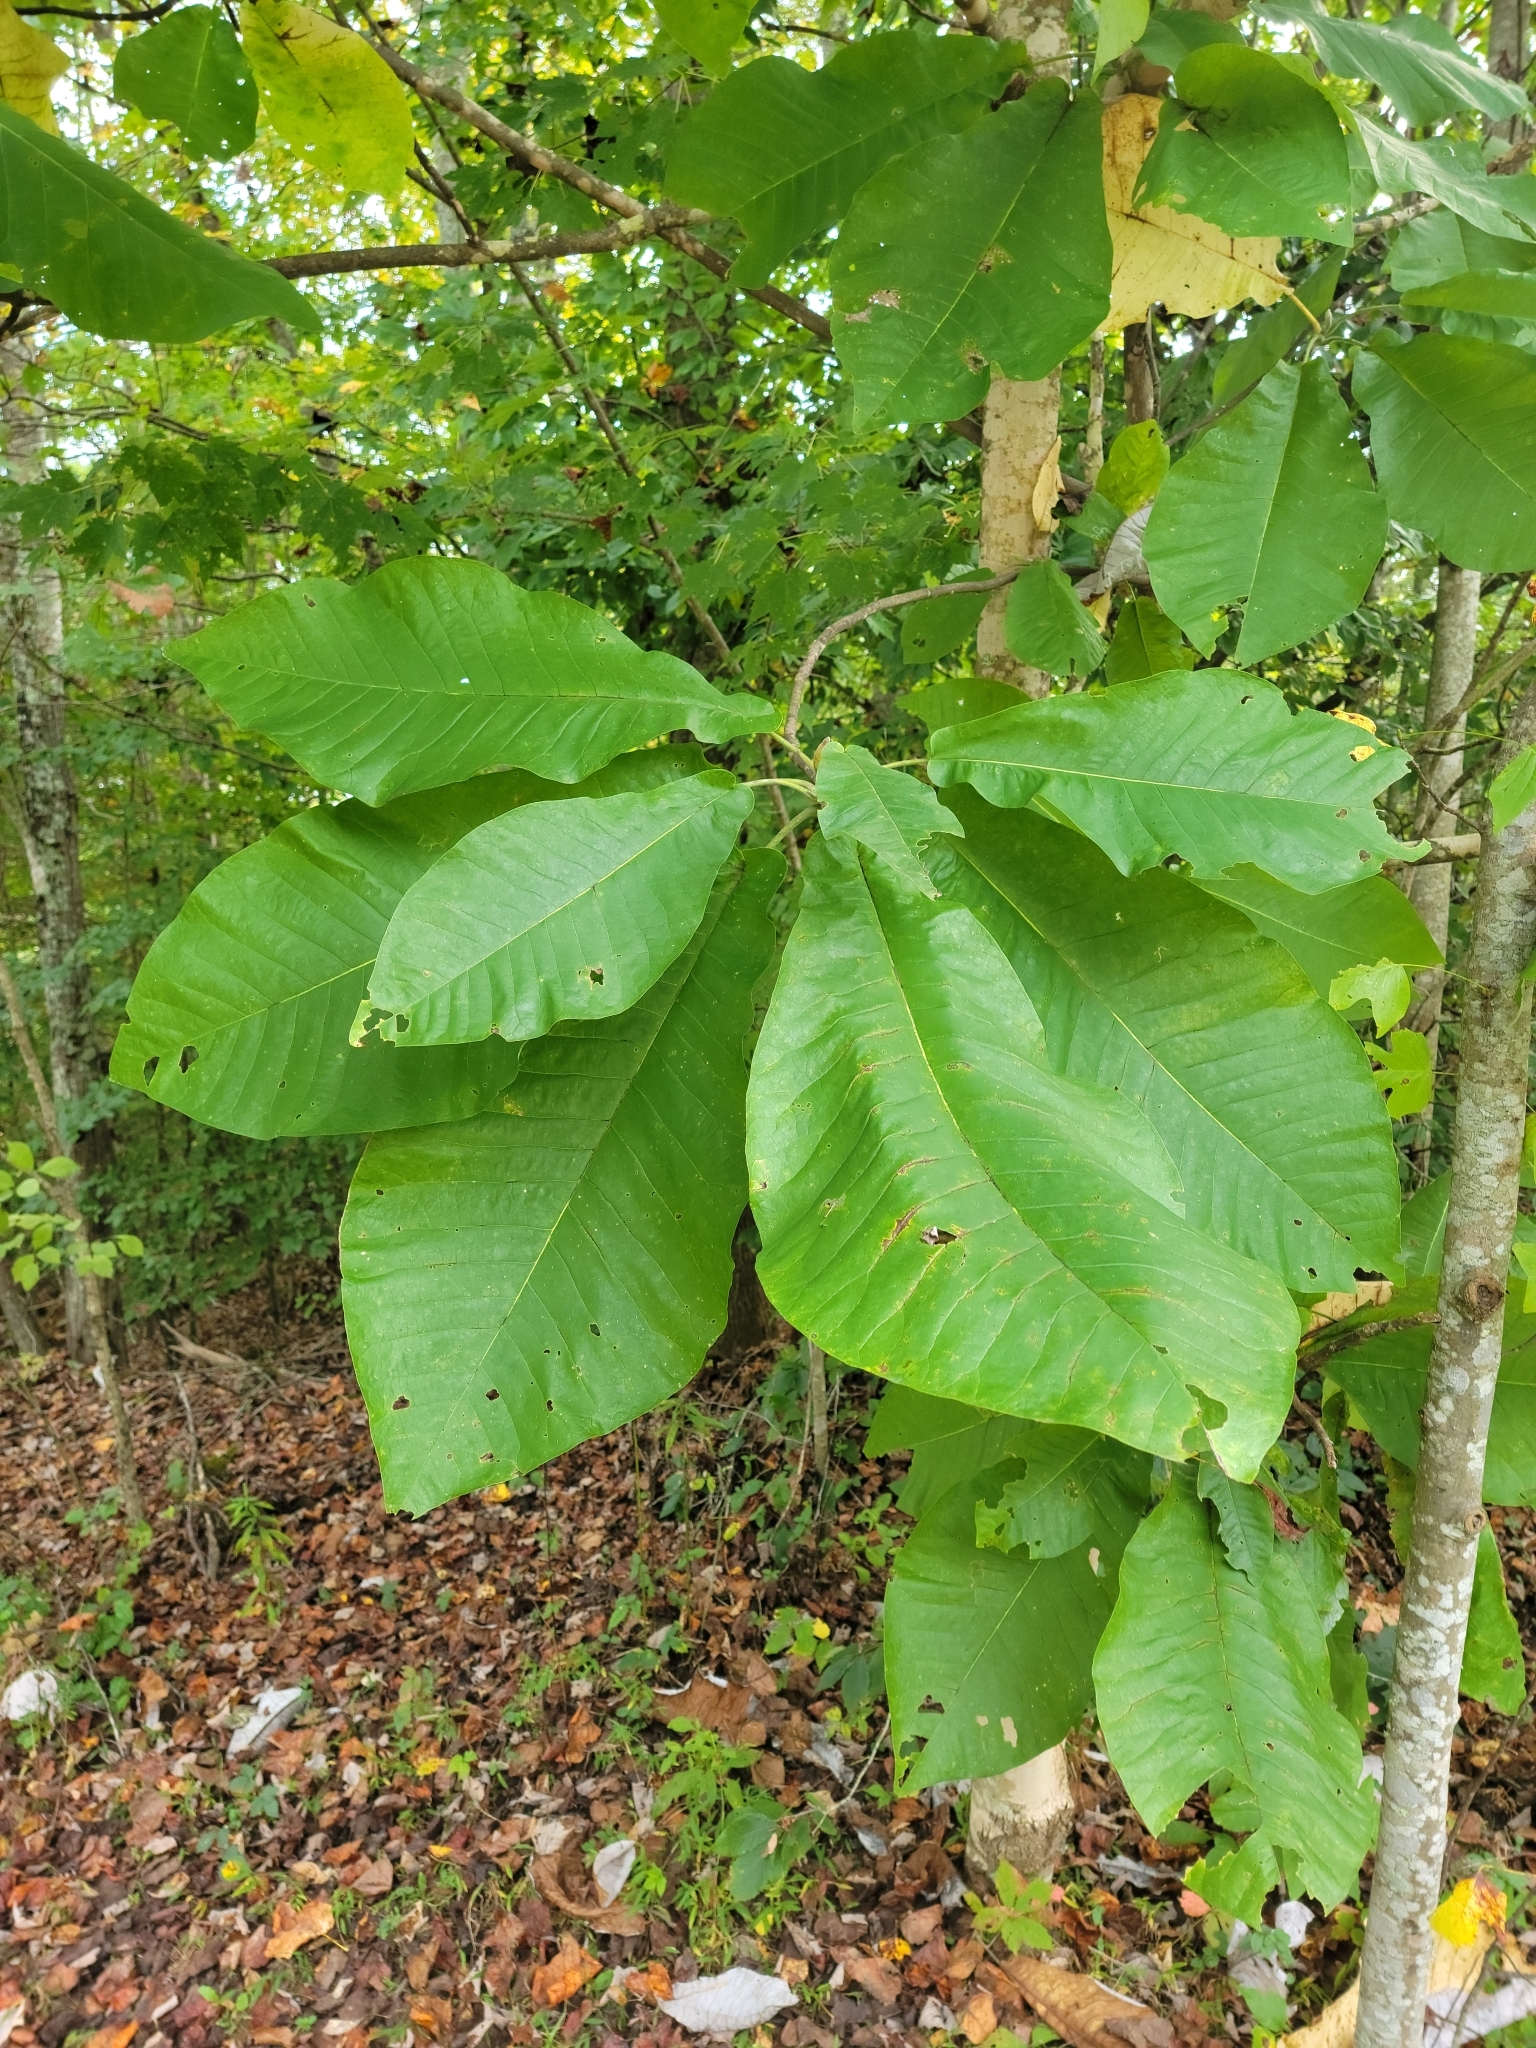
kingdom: Plantae
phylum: Tracheophyta
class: Magnoliopsida
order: Magnoliales
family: Magnoliaceae
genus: Magnolia
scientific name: Magnolia macrophylla
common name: Big-leaf magnolia
